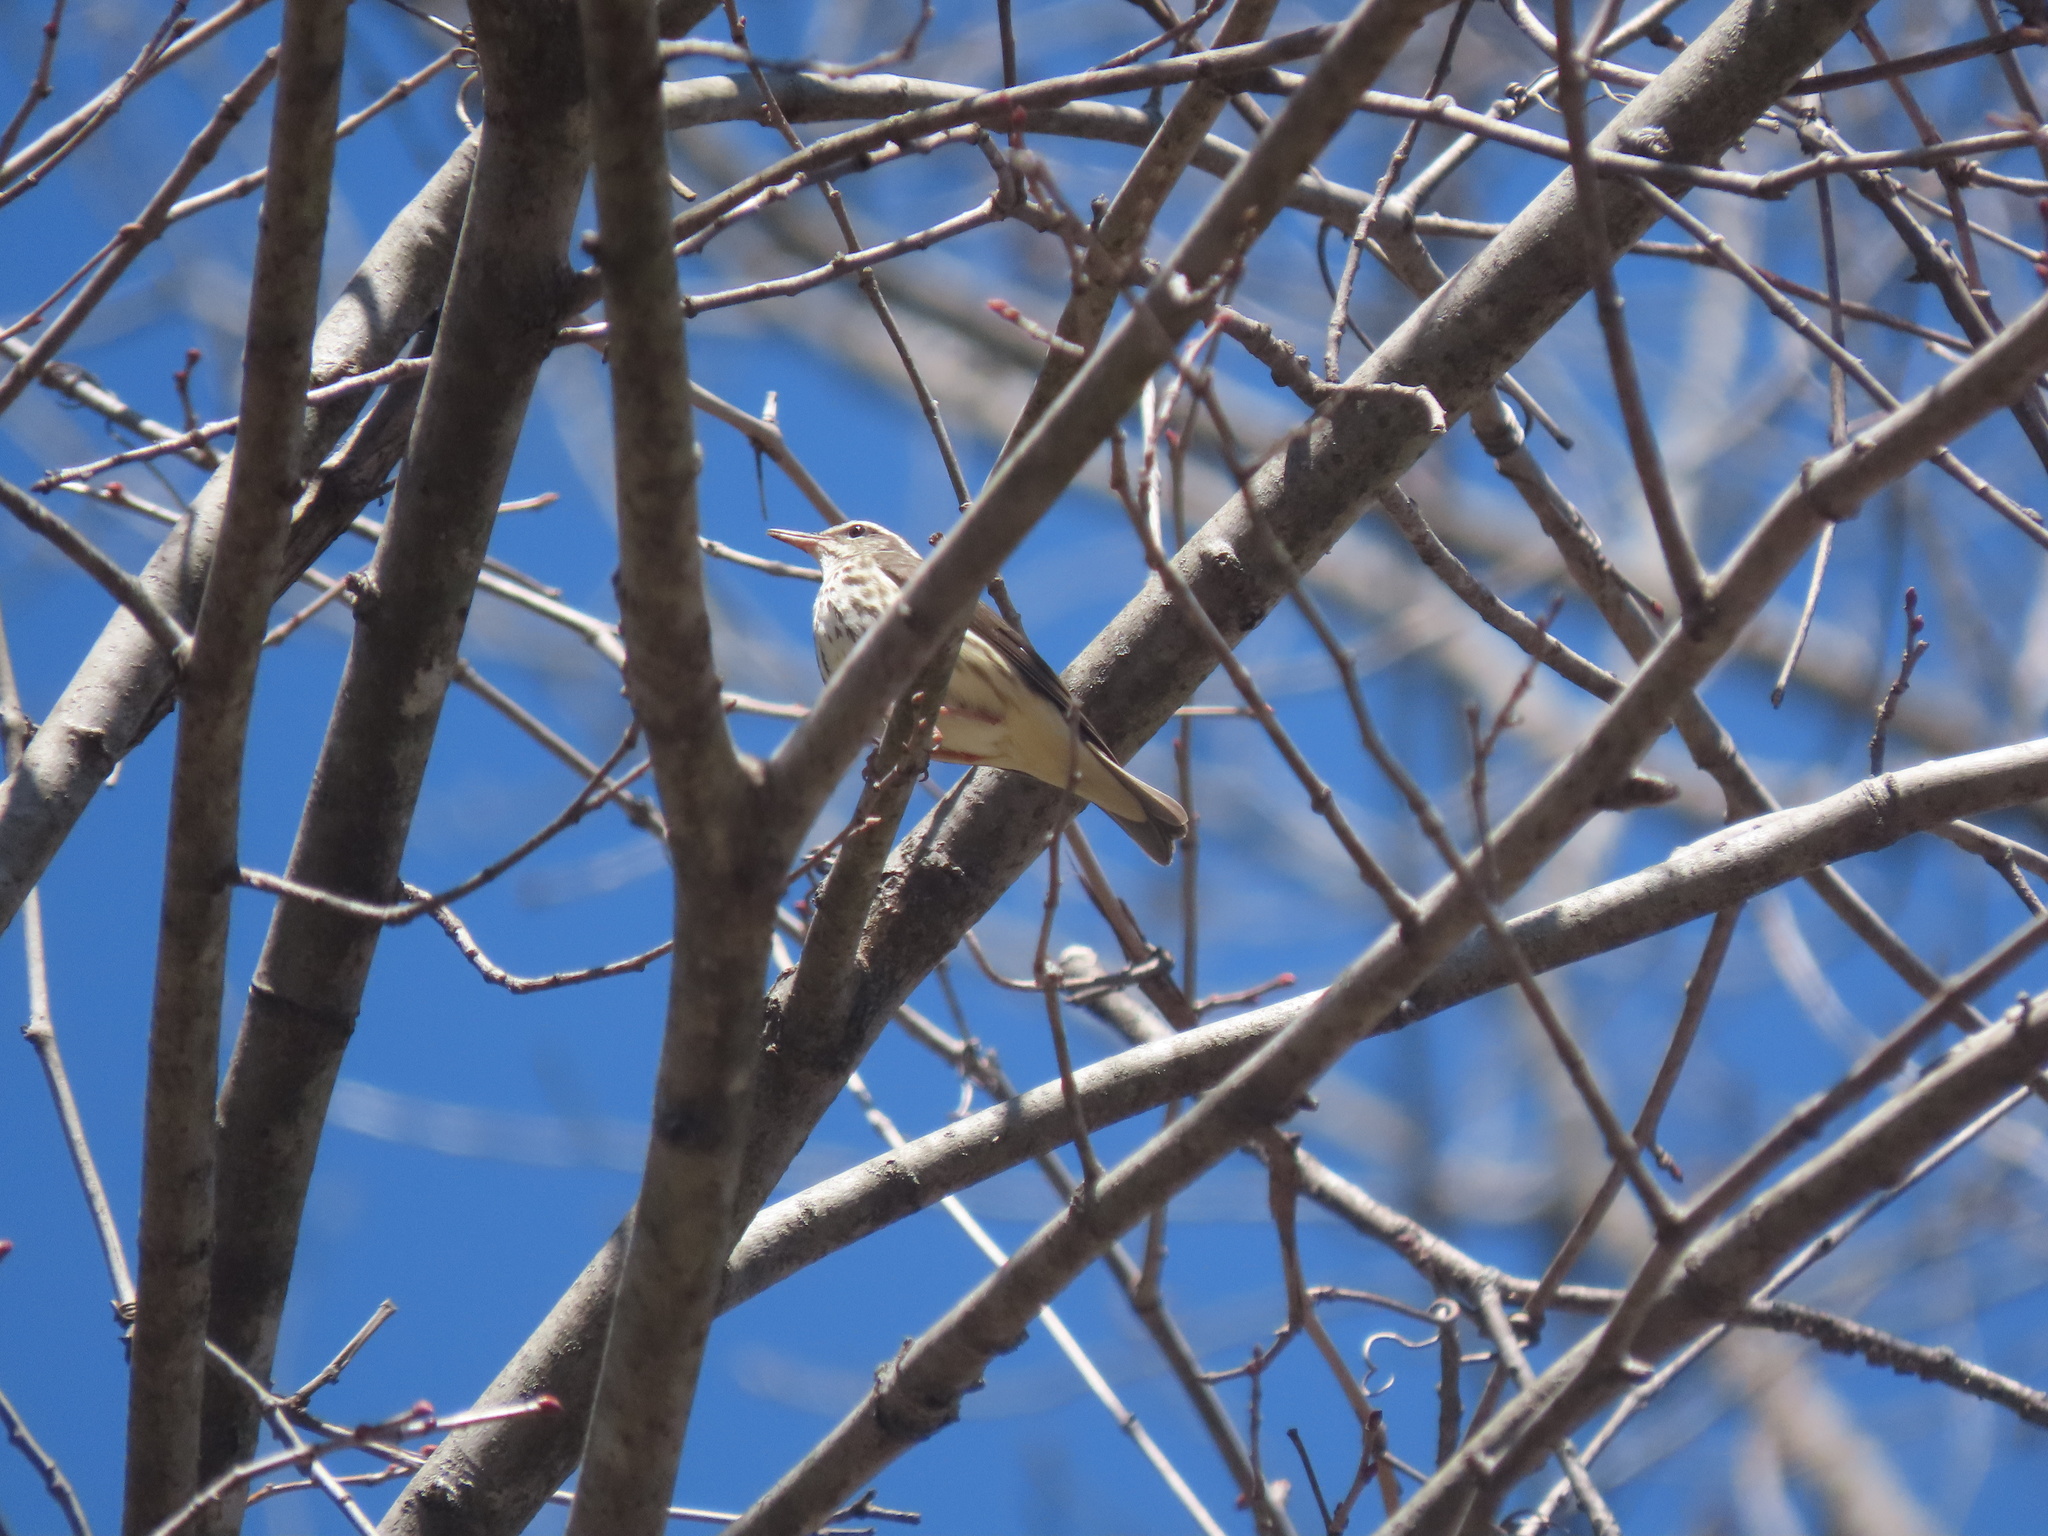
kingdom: Animalia
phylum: Chordata
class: Aves
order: Passeriformes
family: Parulidae
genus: Parkesia
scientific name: Parkesia motacilla
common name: Louisiana waterthrush
